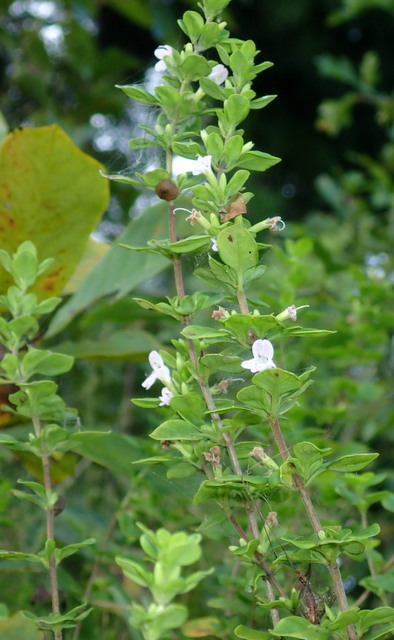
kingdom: Plantae
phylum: Tracheophyta
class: Magnoliopsida
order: Lamiales
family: Lamiaceae
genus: Clinopodium
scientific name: Clinopodium carolinianum
